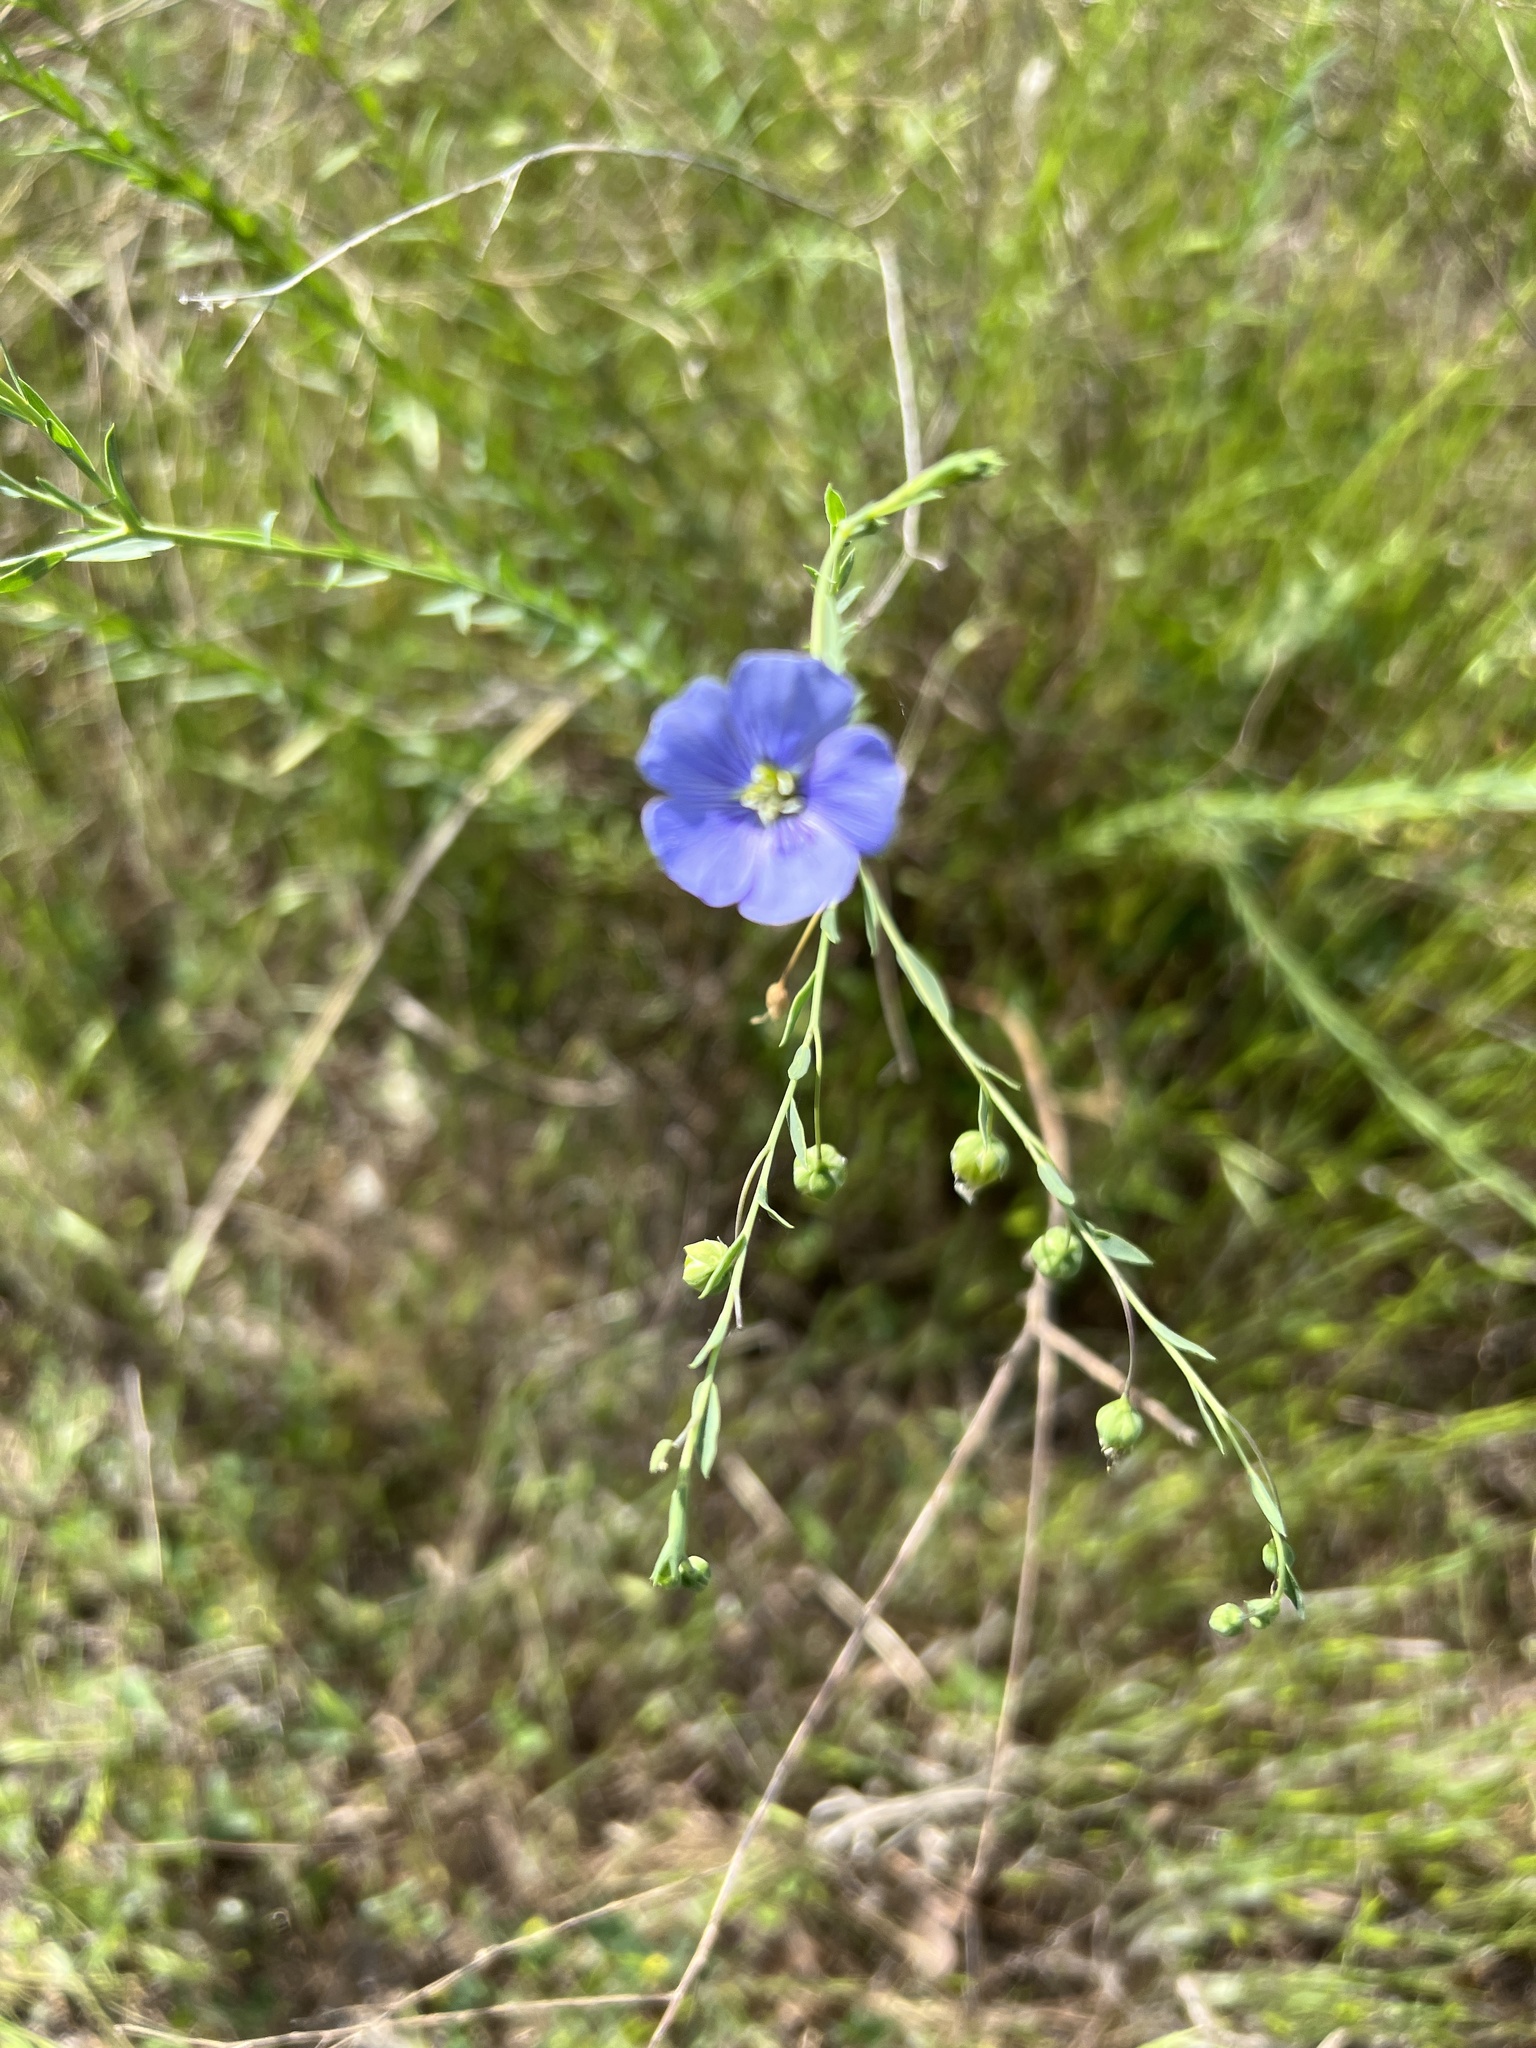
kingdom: Plantae
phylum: Tracheophyta
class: Magnoliopsida
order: Malpighiales
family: Linaceae
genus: Linum
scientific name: Linum pratense
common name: Norton's flax
